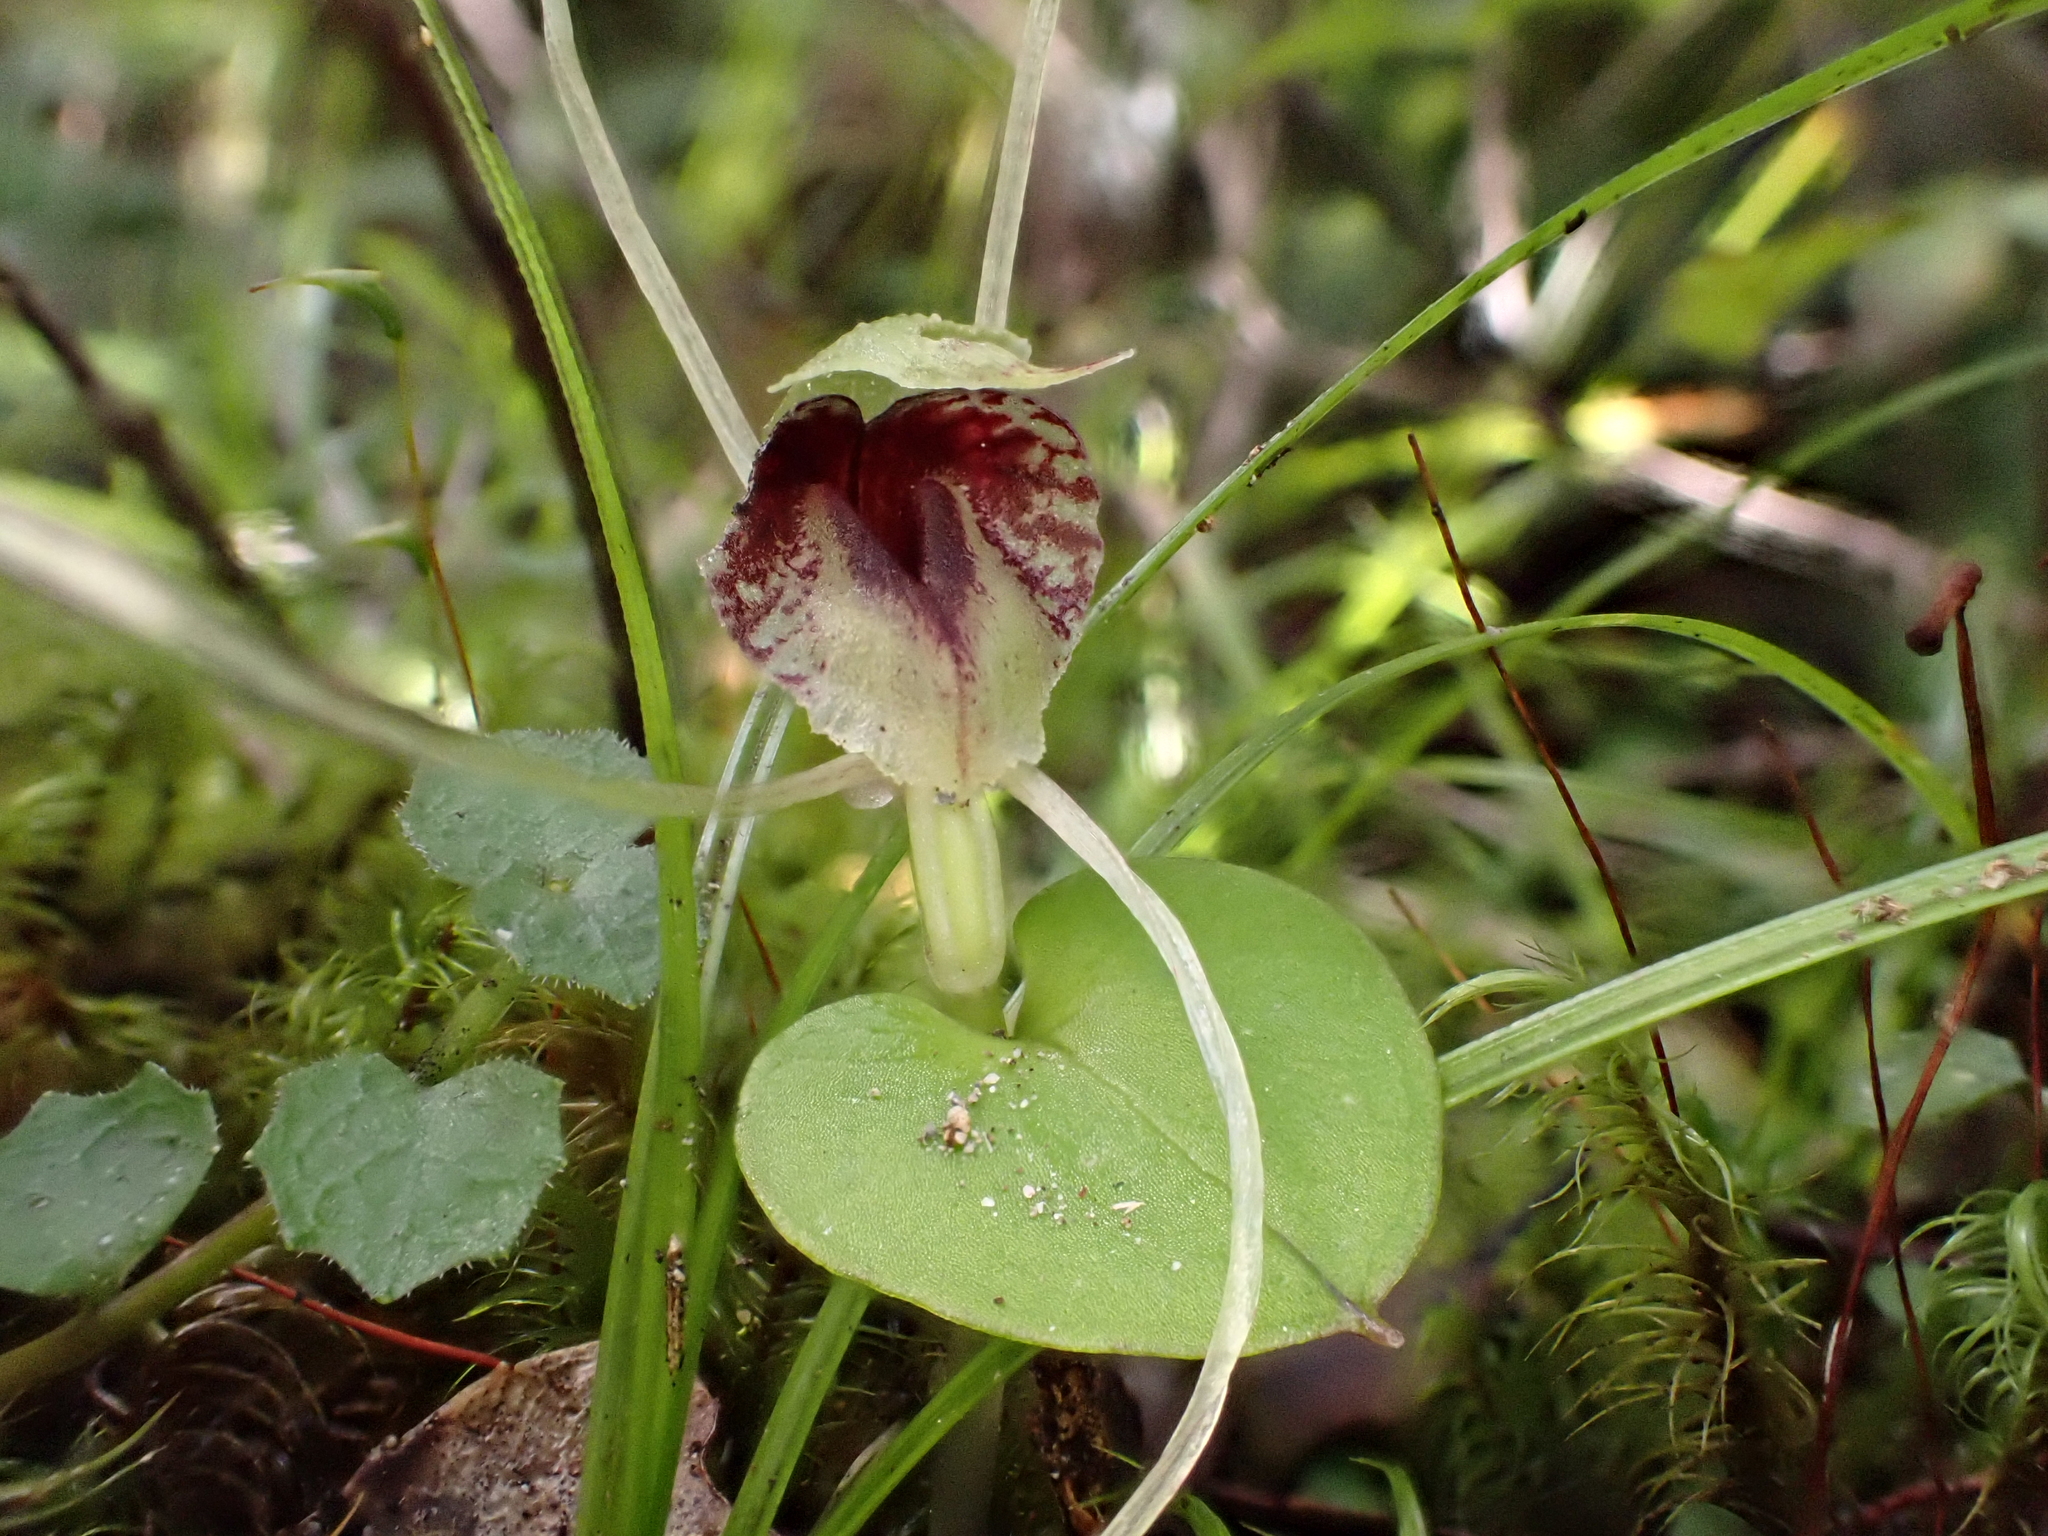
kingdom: Plantae
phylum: Tracheophyta
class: Liliopsida
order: Asparagales
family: Orchidaceae
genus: Corybas
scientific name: Corybas hatchii
